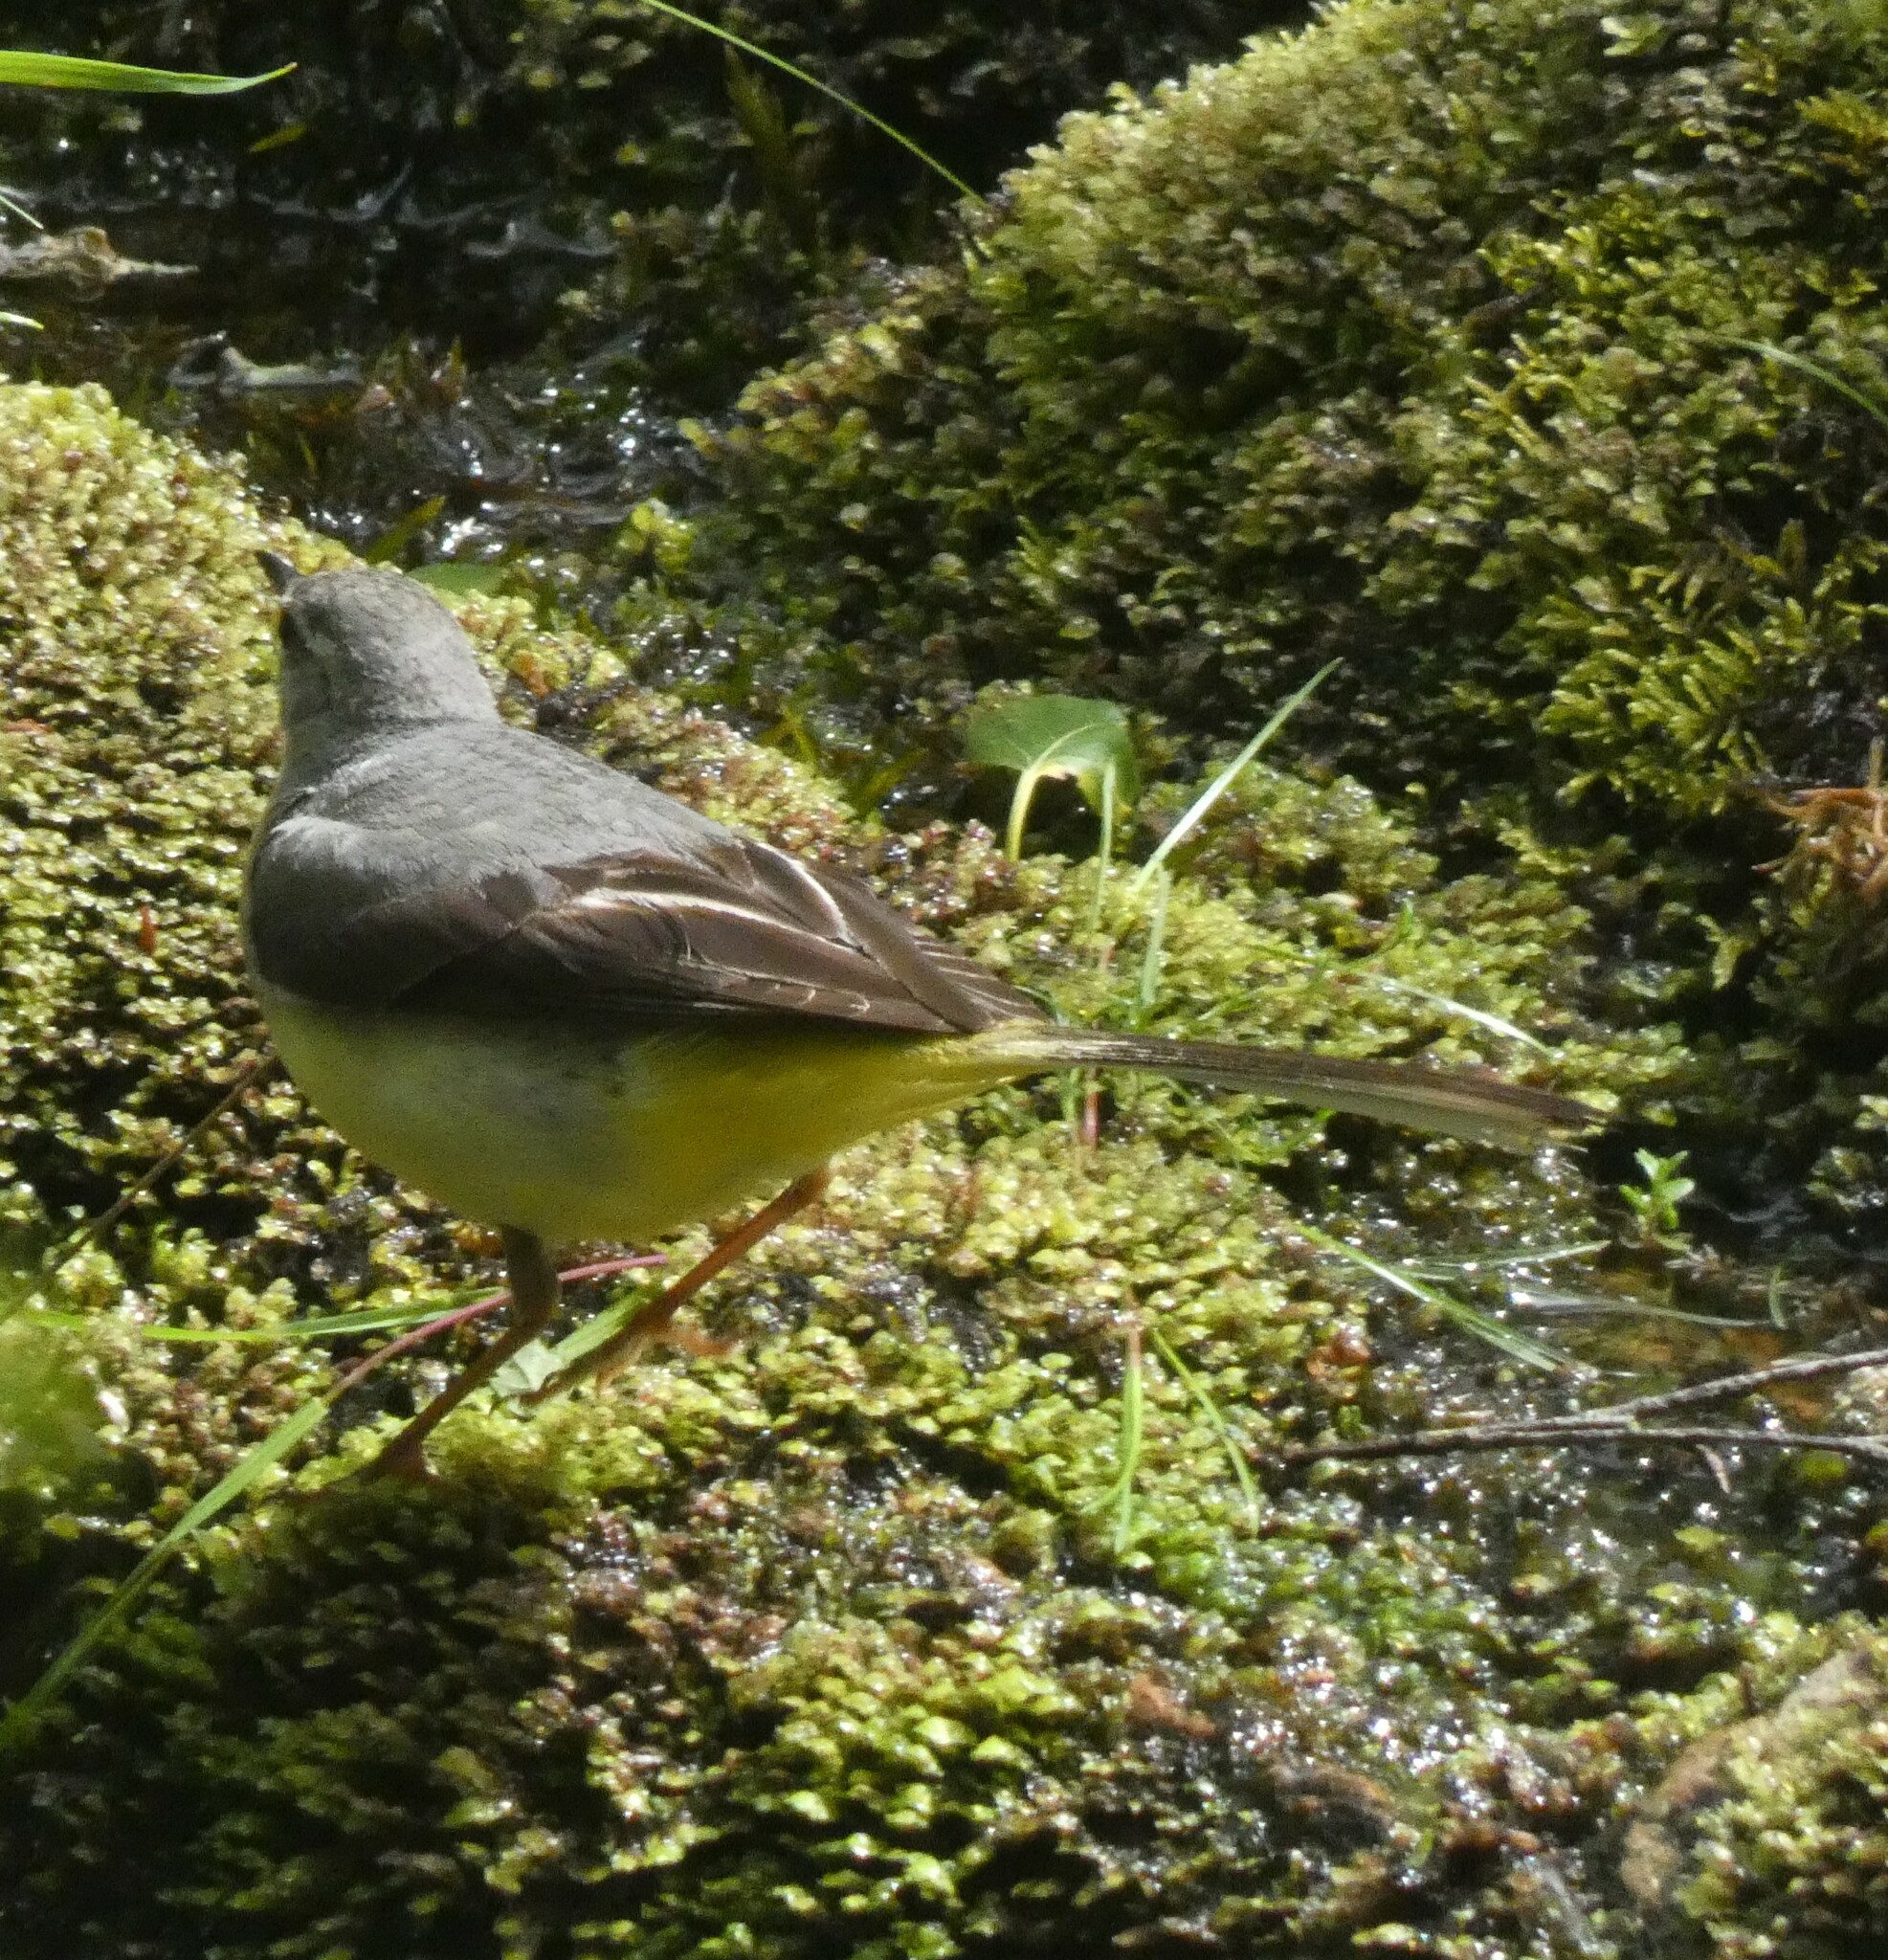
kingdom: Animalia
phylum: Chordata
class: Aves
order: Passeriformes
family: Motacillidae
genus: Motacilla
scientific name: Motacilla cinerea
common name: Grey wagtail
